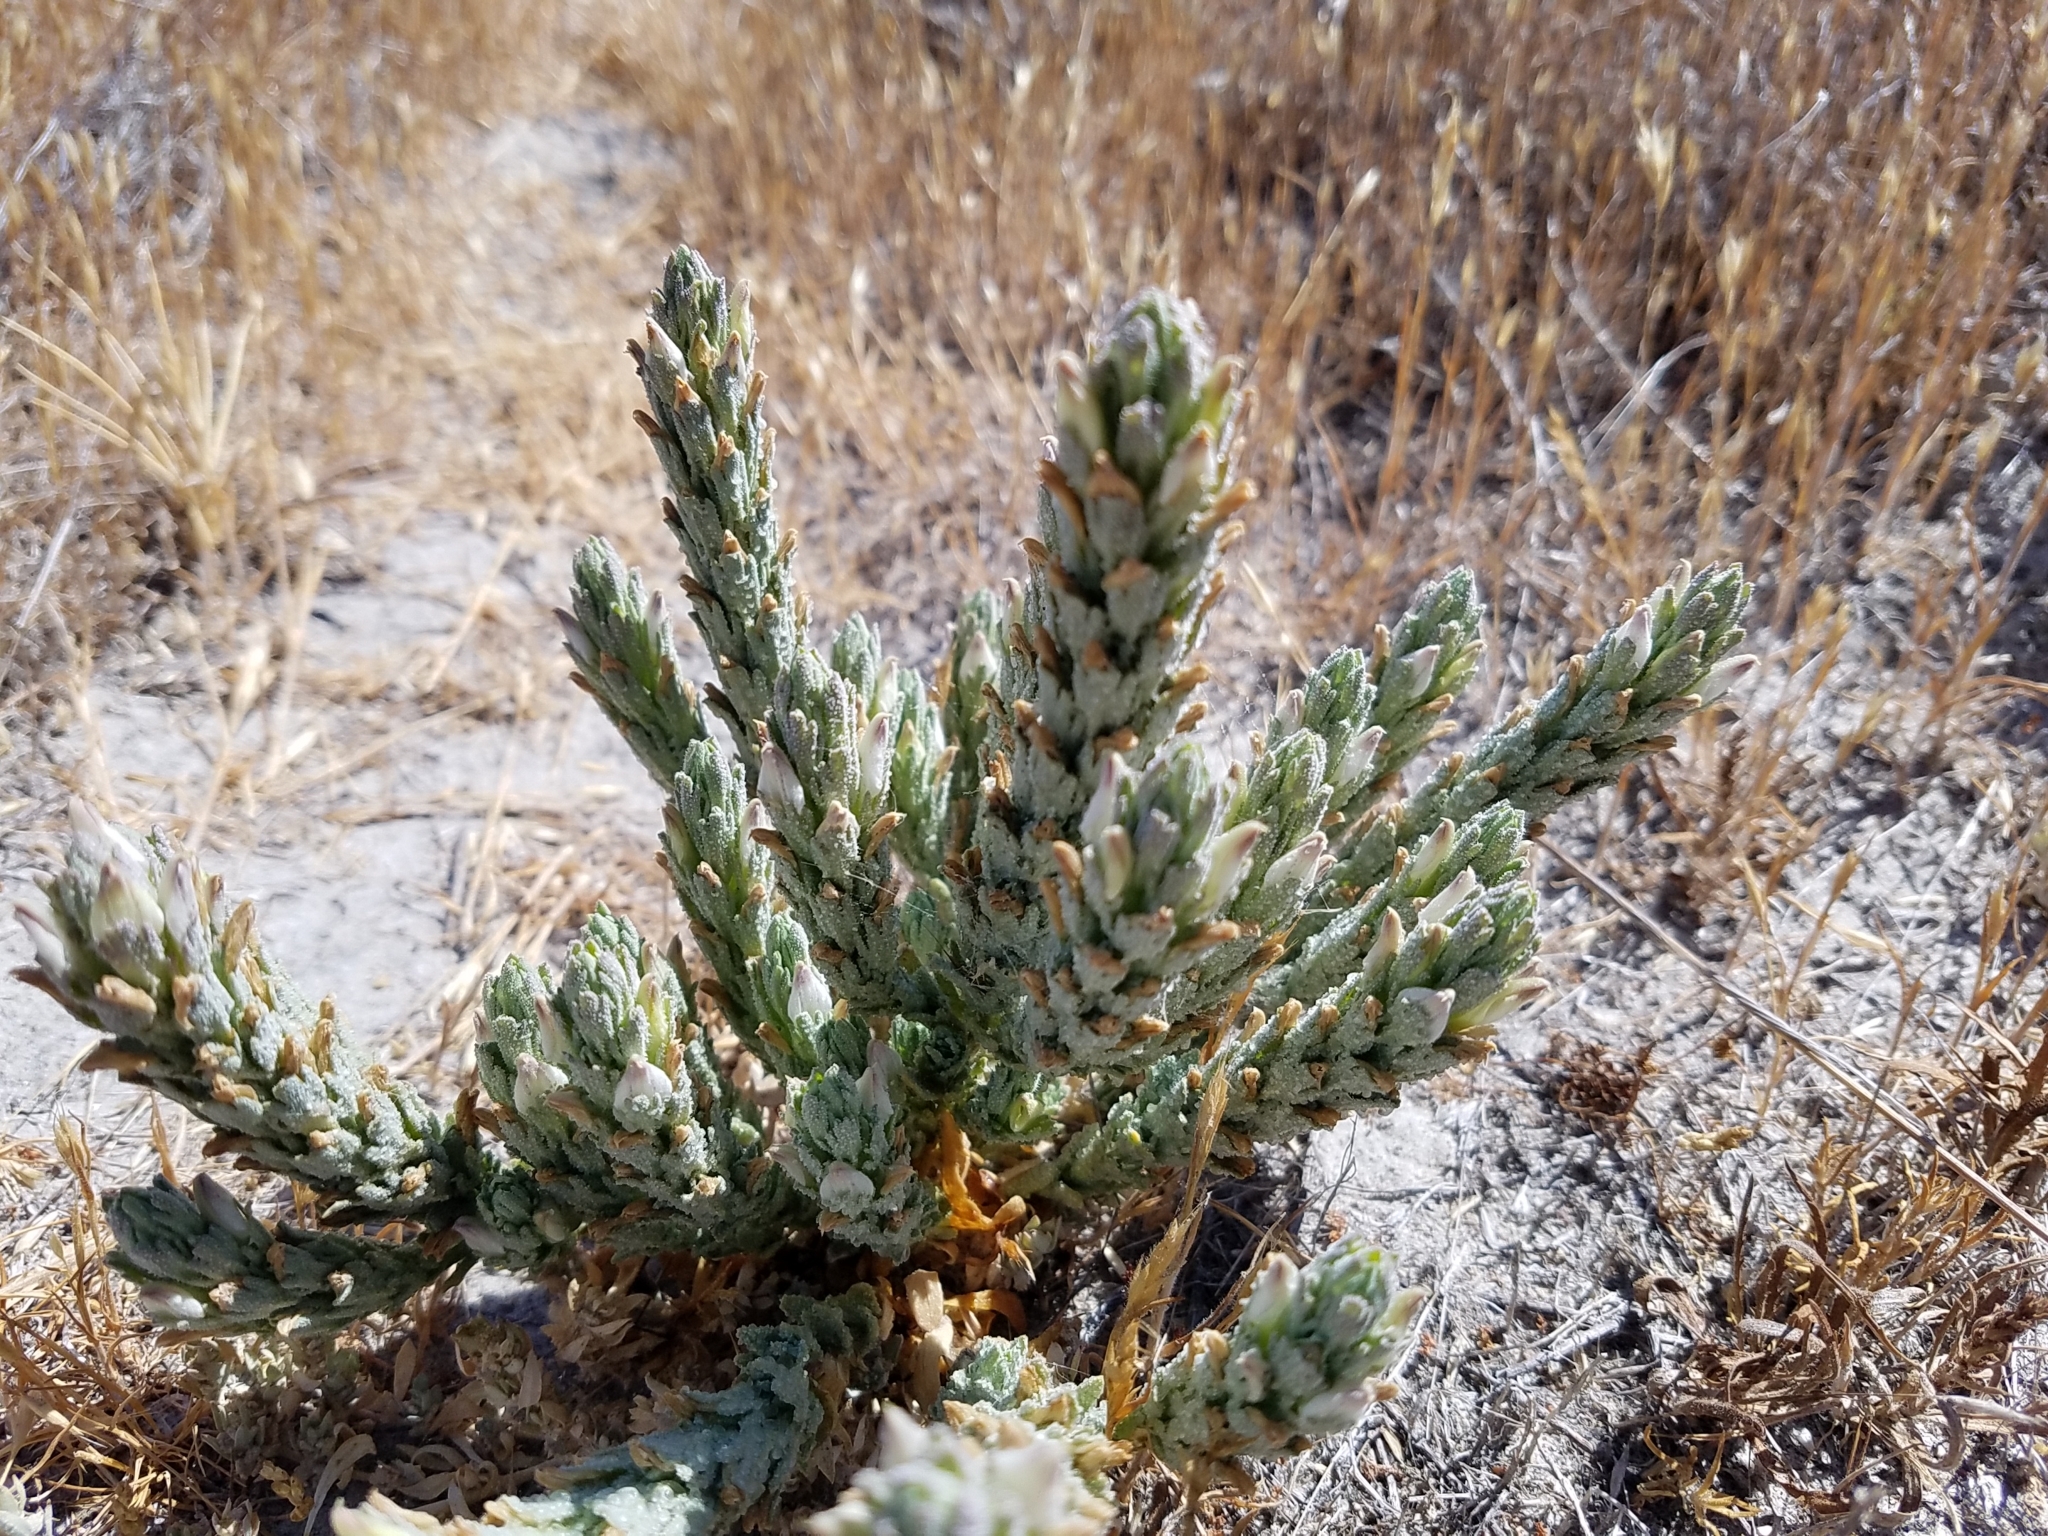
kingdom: Plantae
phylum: Tracheophyta
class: Magnoliopsida
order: Lamiales
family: Orobanchaceae
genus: Chloropyron
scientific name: Chloropyron palmatum
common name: Palmate salty bird's-beak
